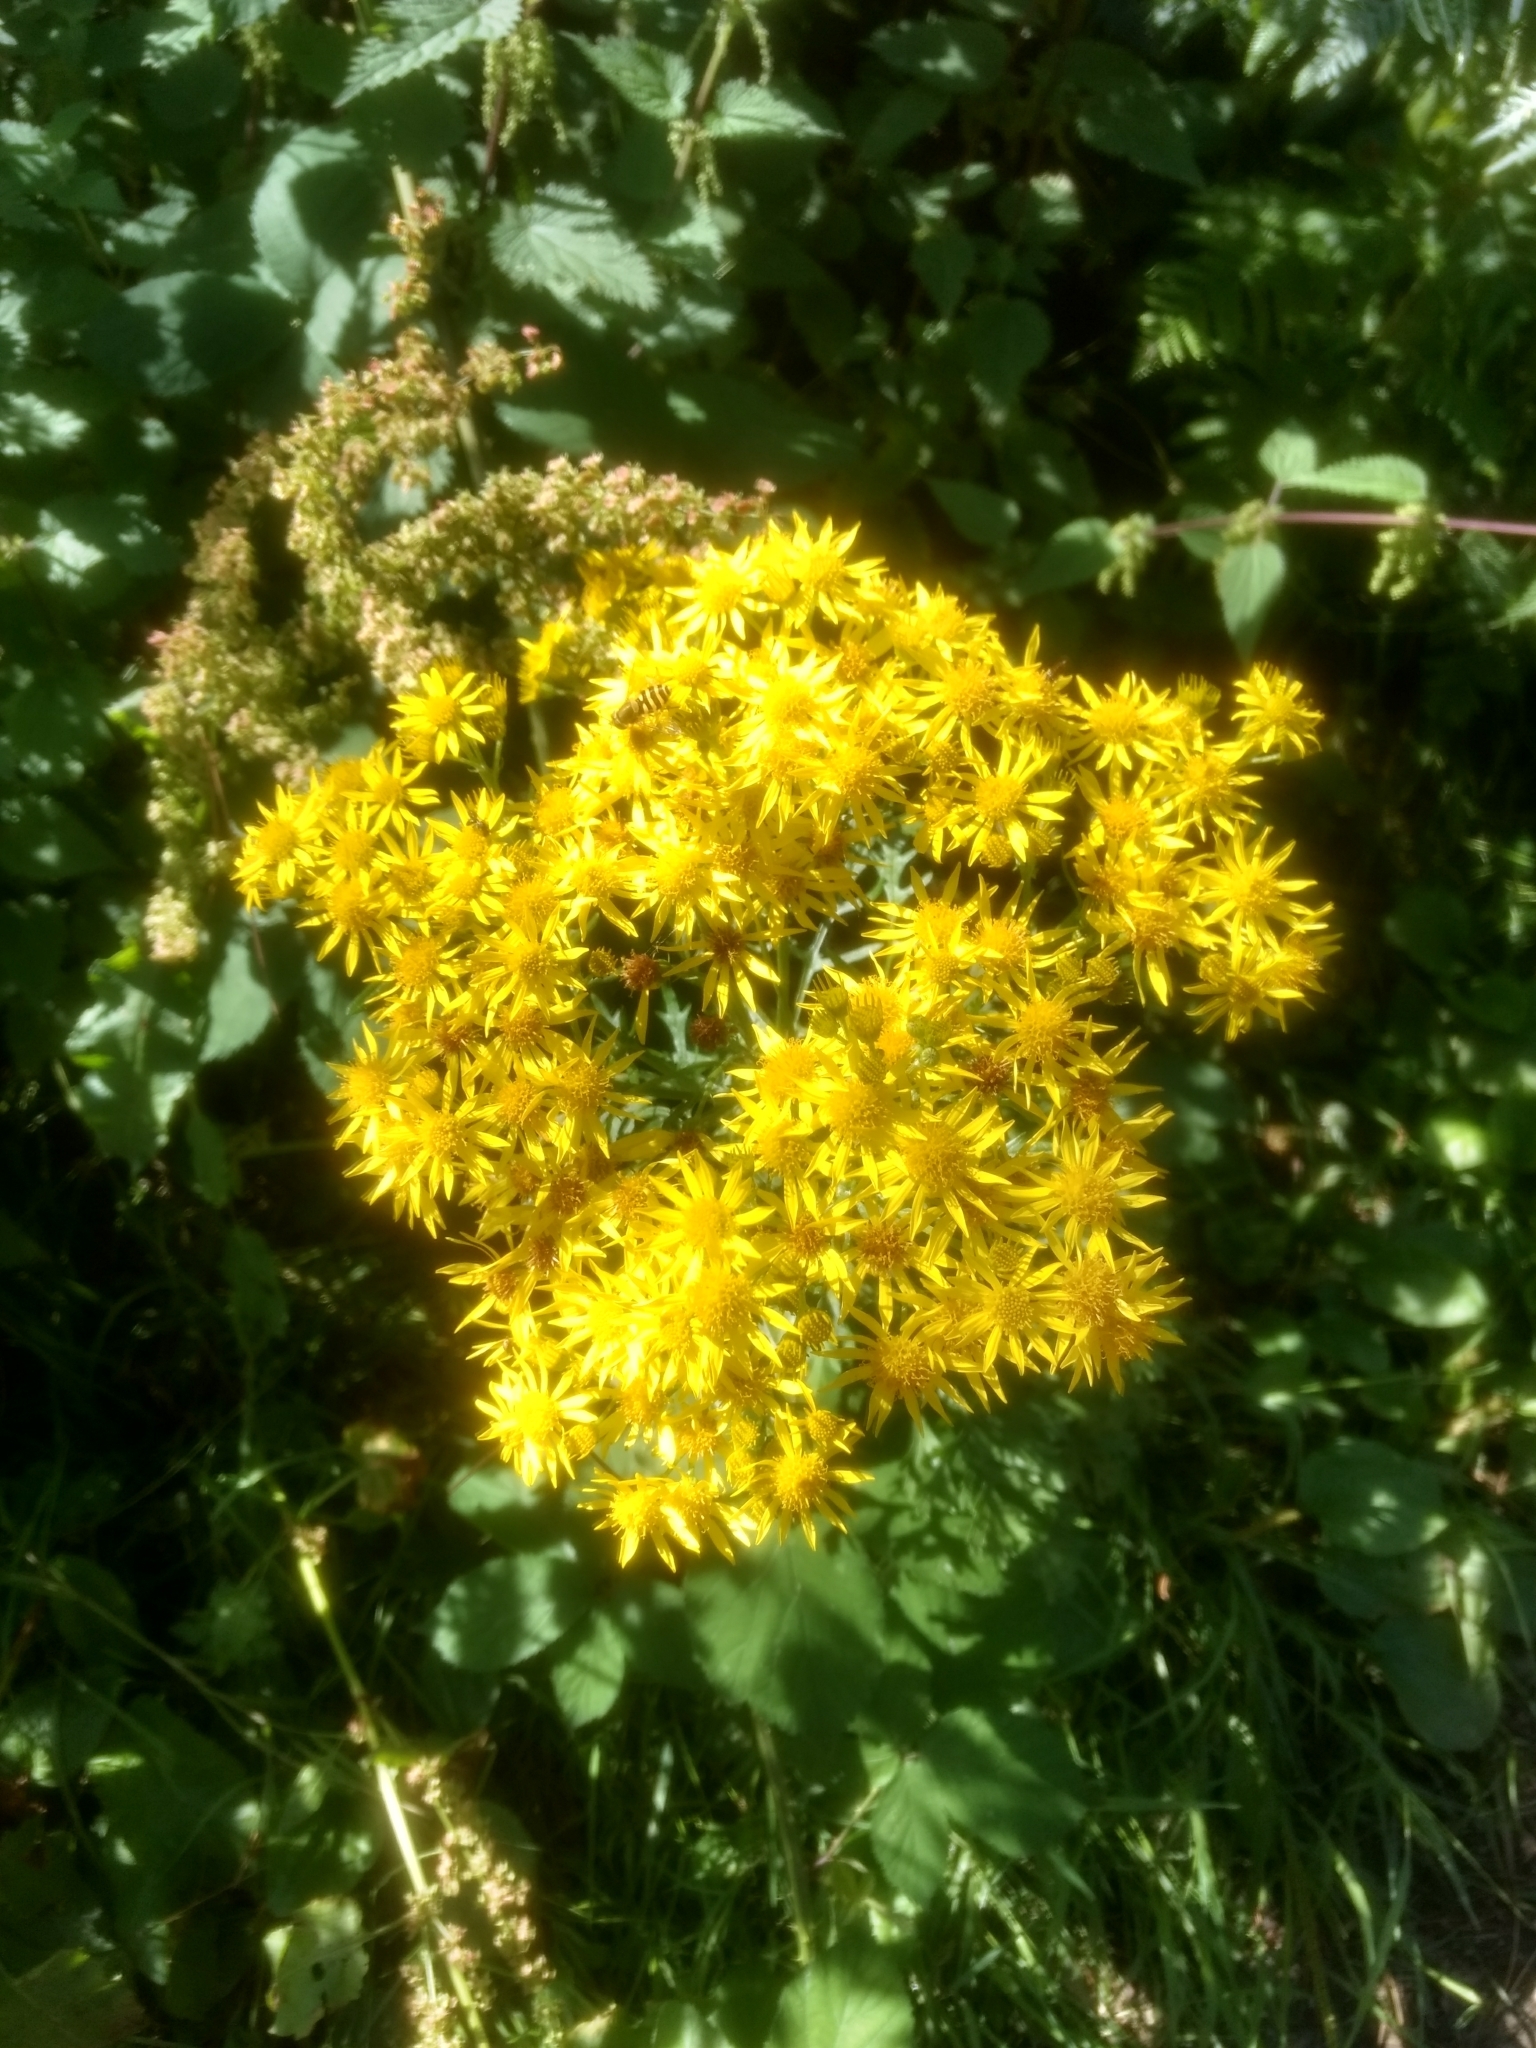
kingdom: Plantae
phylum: Tracheophyta
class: Magnoliopsida
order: Asterales
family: Asteraceae
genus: Jacobaea
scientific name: Jacobaea vulgaris
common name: Stinking willie
